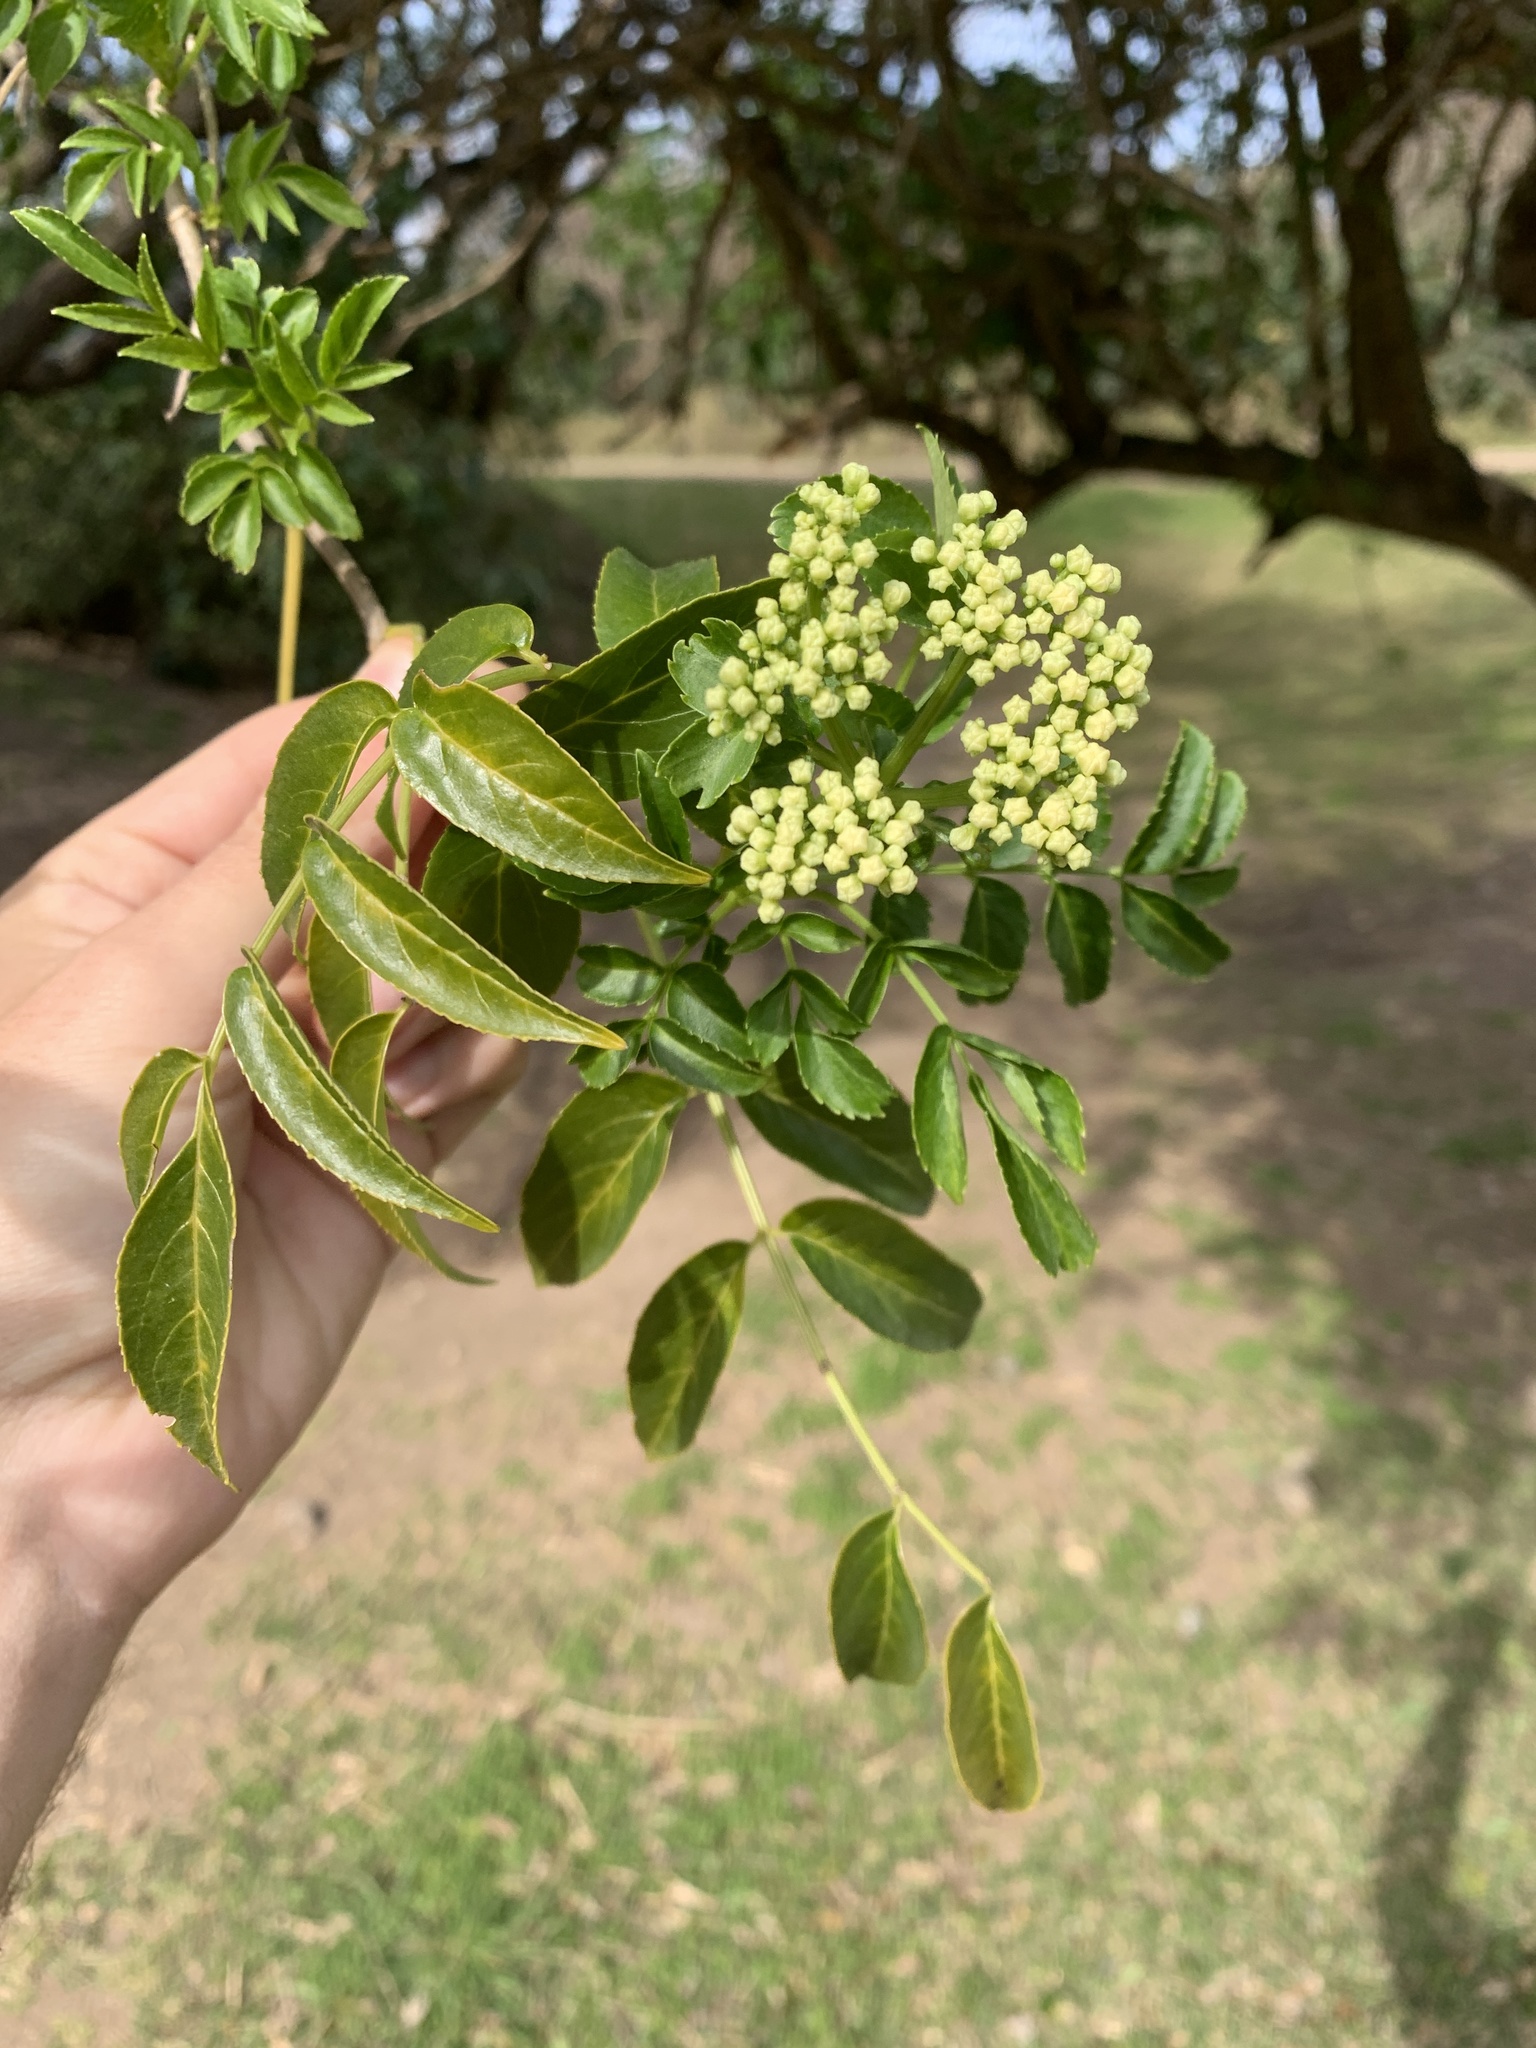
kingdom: Plantae
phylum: Tracheophyta
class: Magnoliopsida
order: Dipsacales
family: Viburnaceae
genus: Sambucus
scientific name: Sambucus australis
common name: Southern elder
